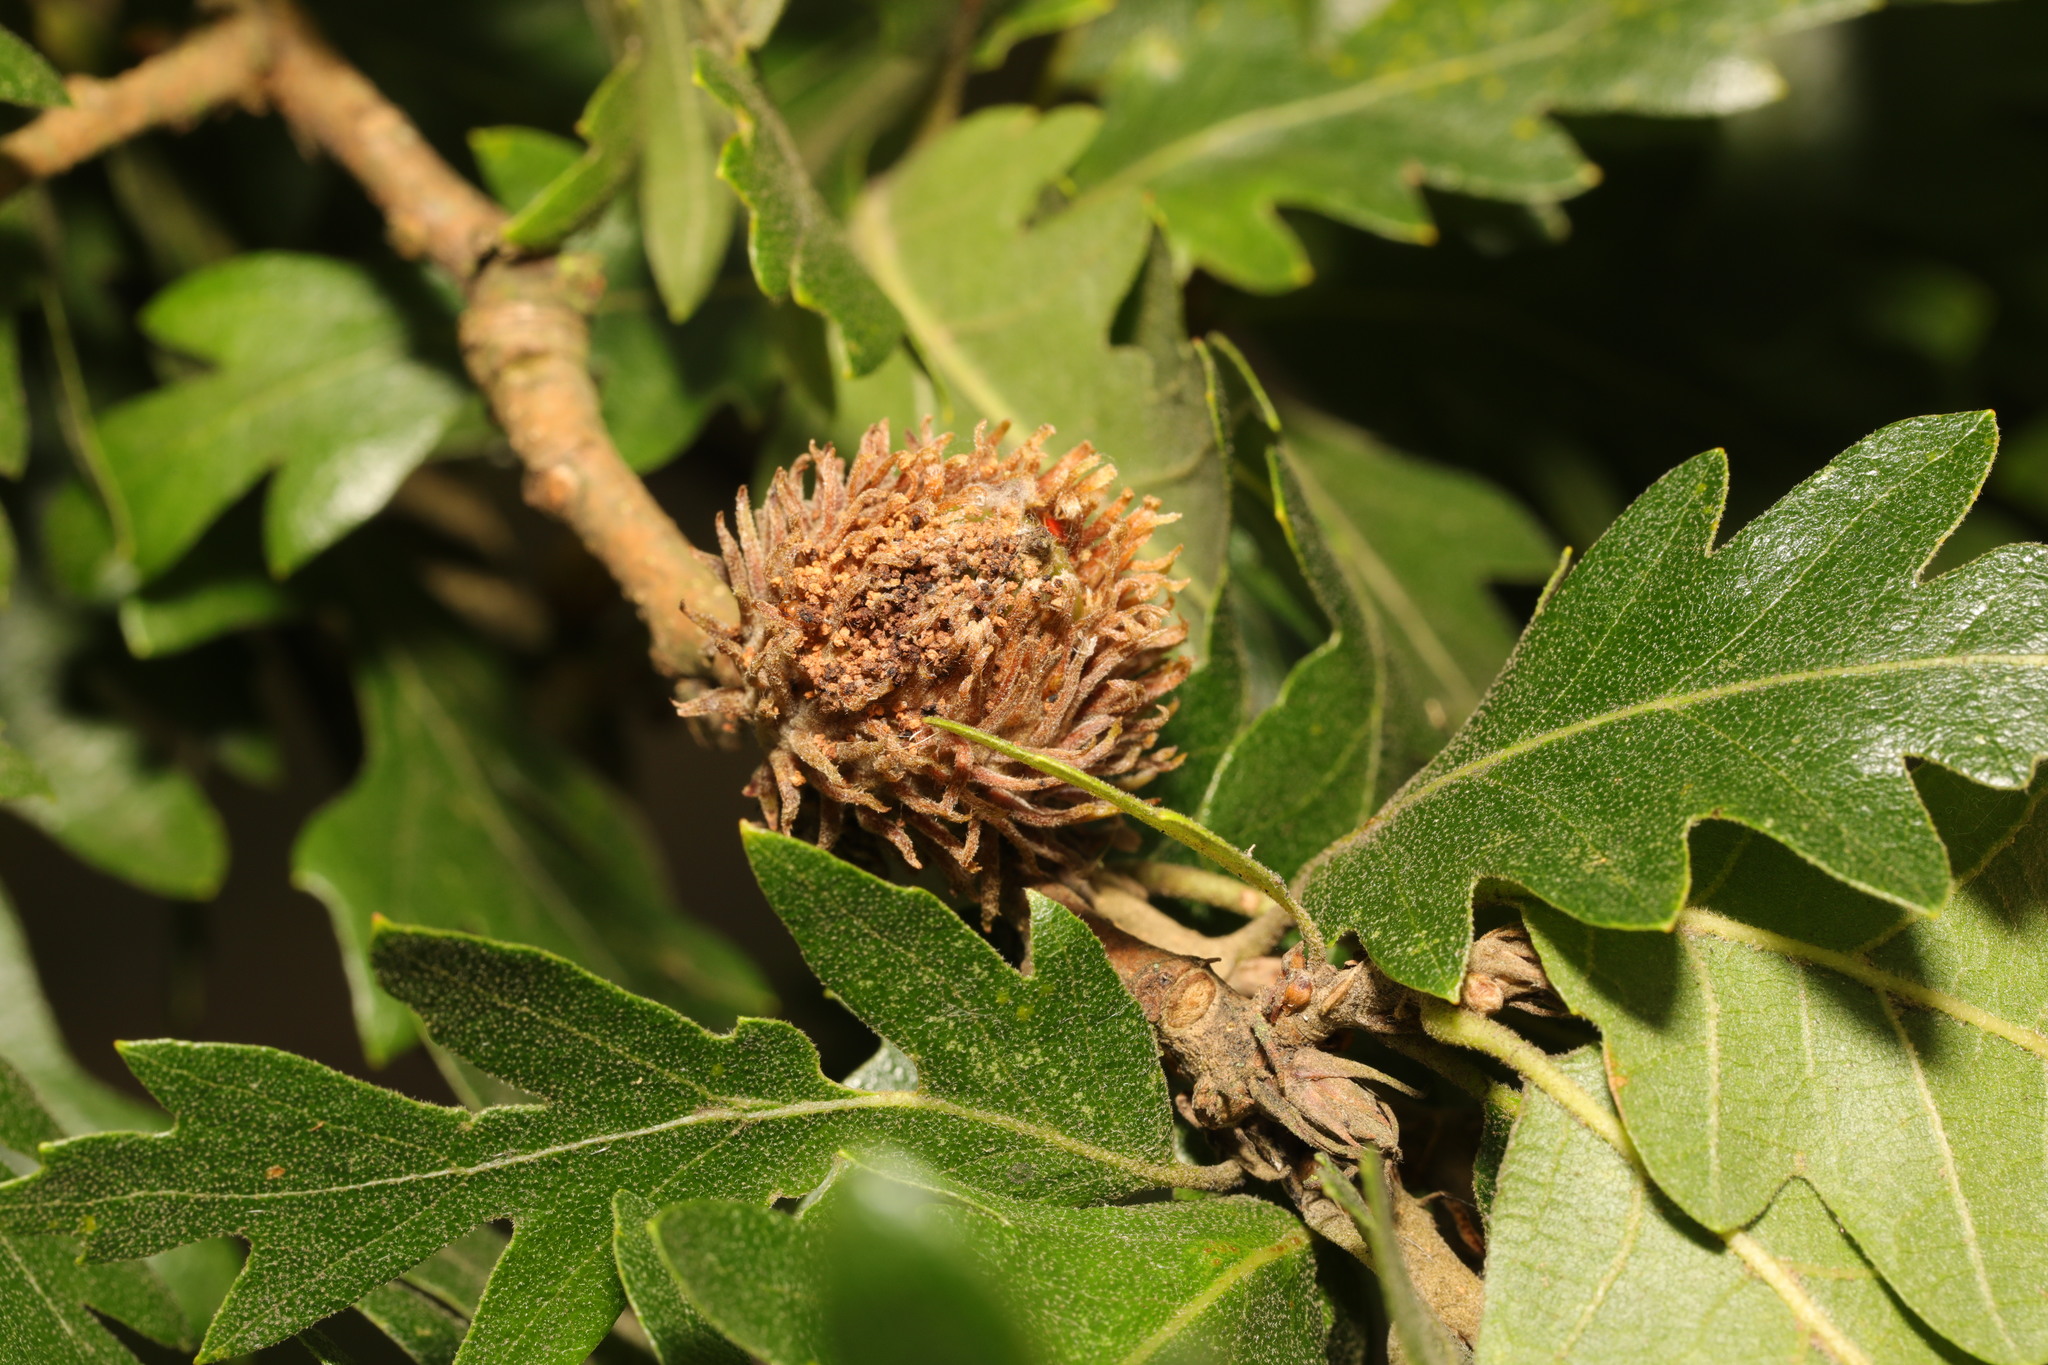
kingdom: Plantae
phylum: Tracheophyta
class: Magnoliopsida
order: Fagales
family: Fagaceae
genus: Quercus
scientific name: Quercus cerris
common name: Turkey oak
